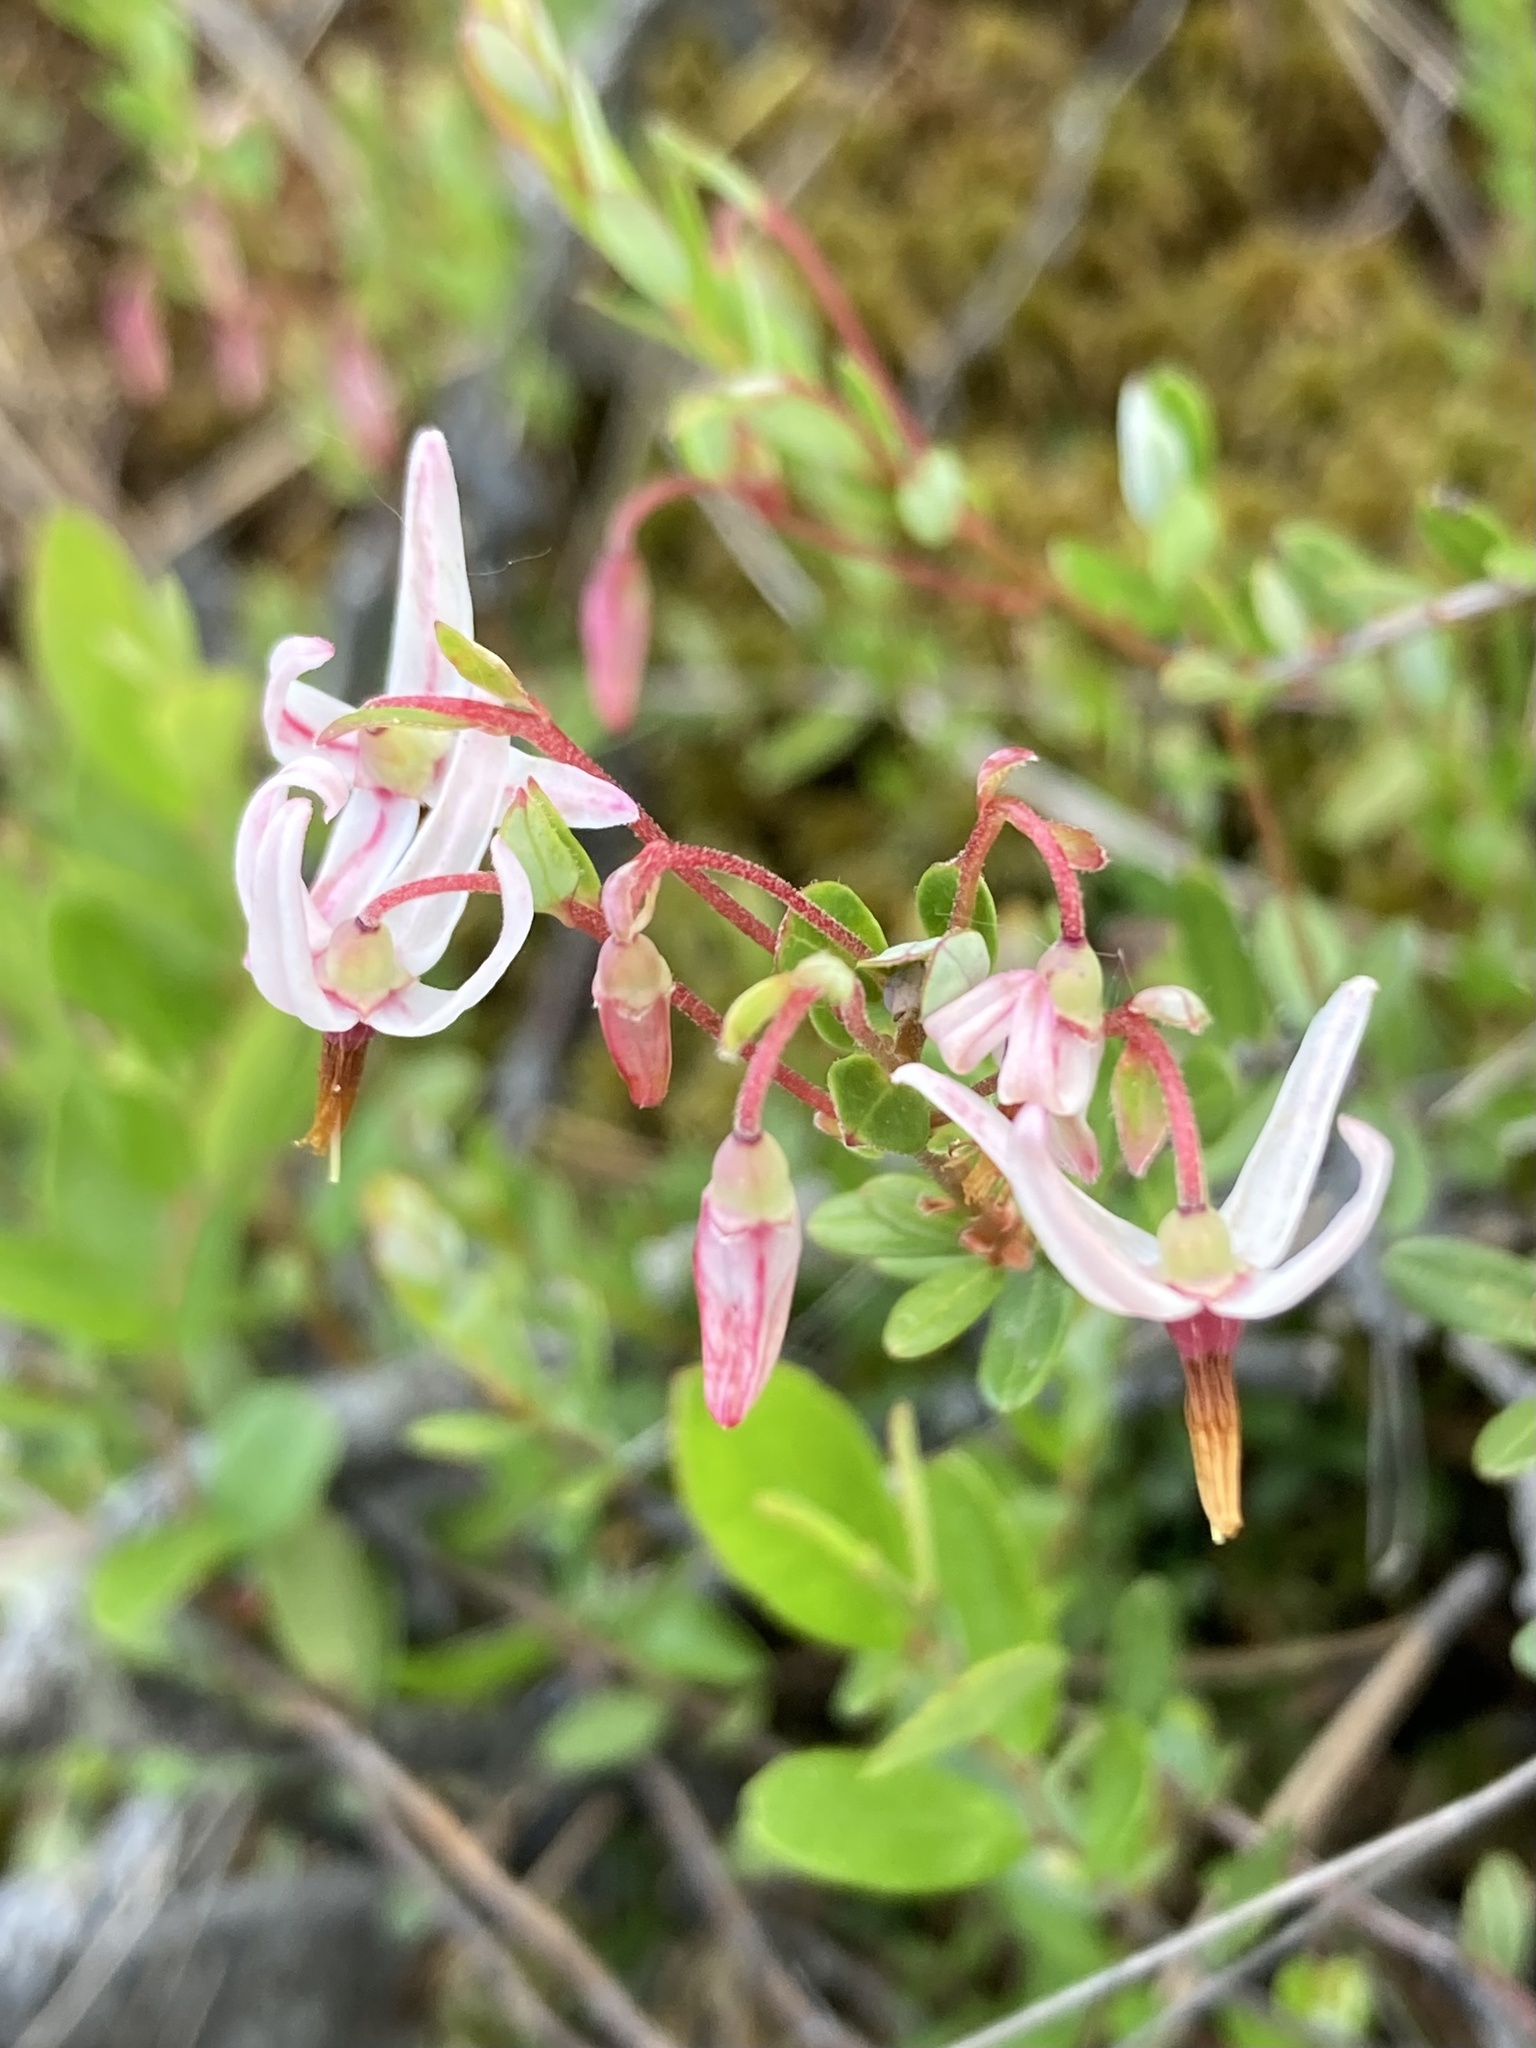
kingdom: Plantae
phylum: Tracheophyta
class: Magnoliopsida
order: Ericales
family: Ericaceae
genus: Vaccinium
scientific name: Vaccinium macrocarpon
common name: American cranberry
